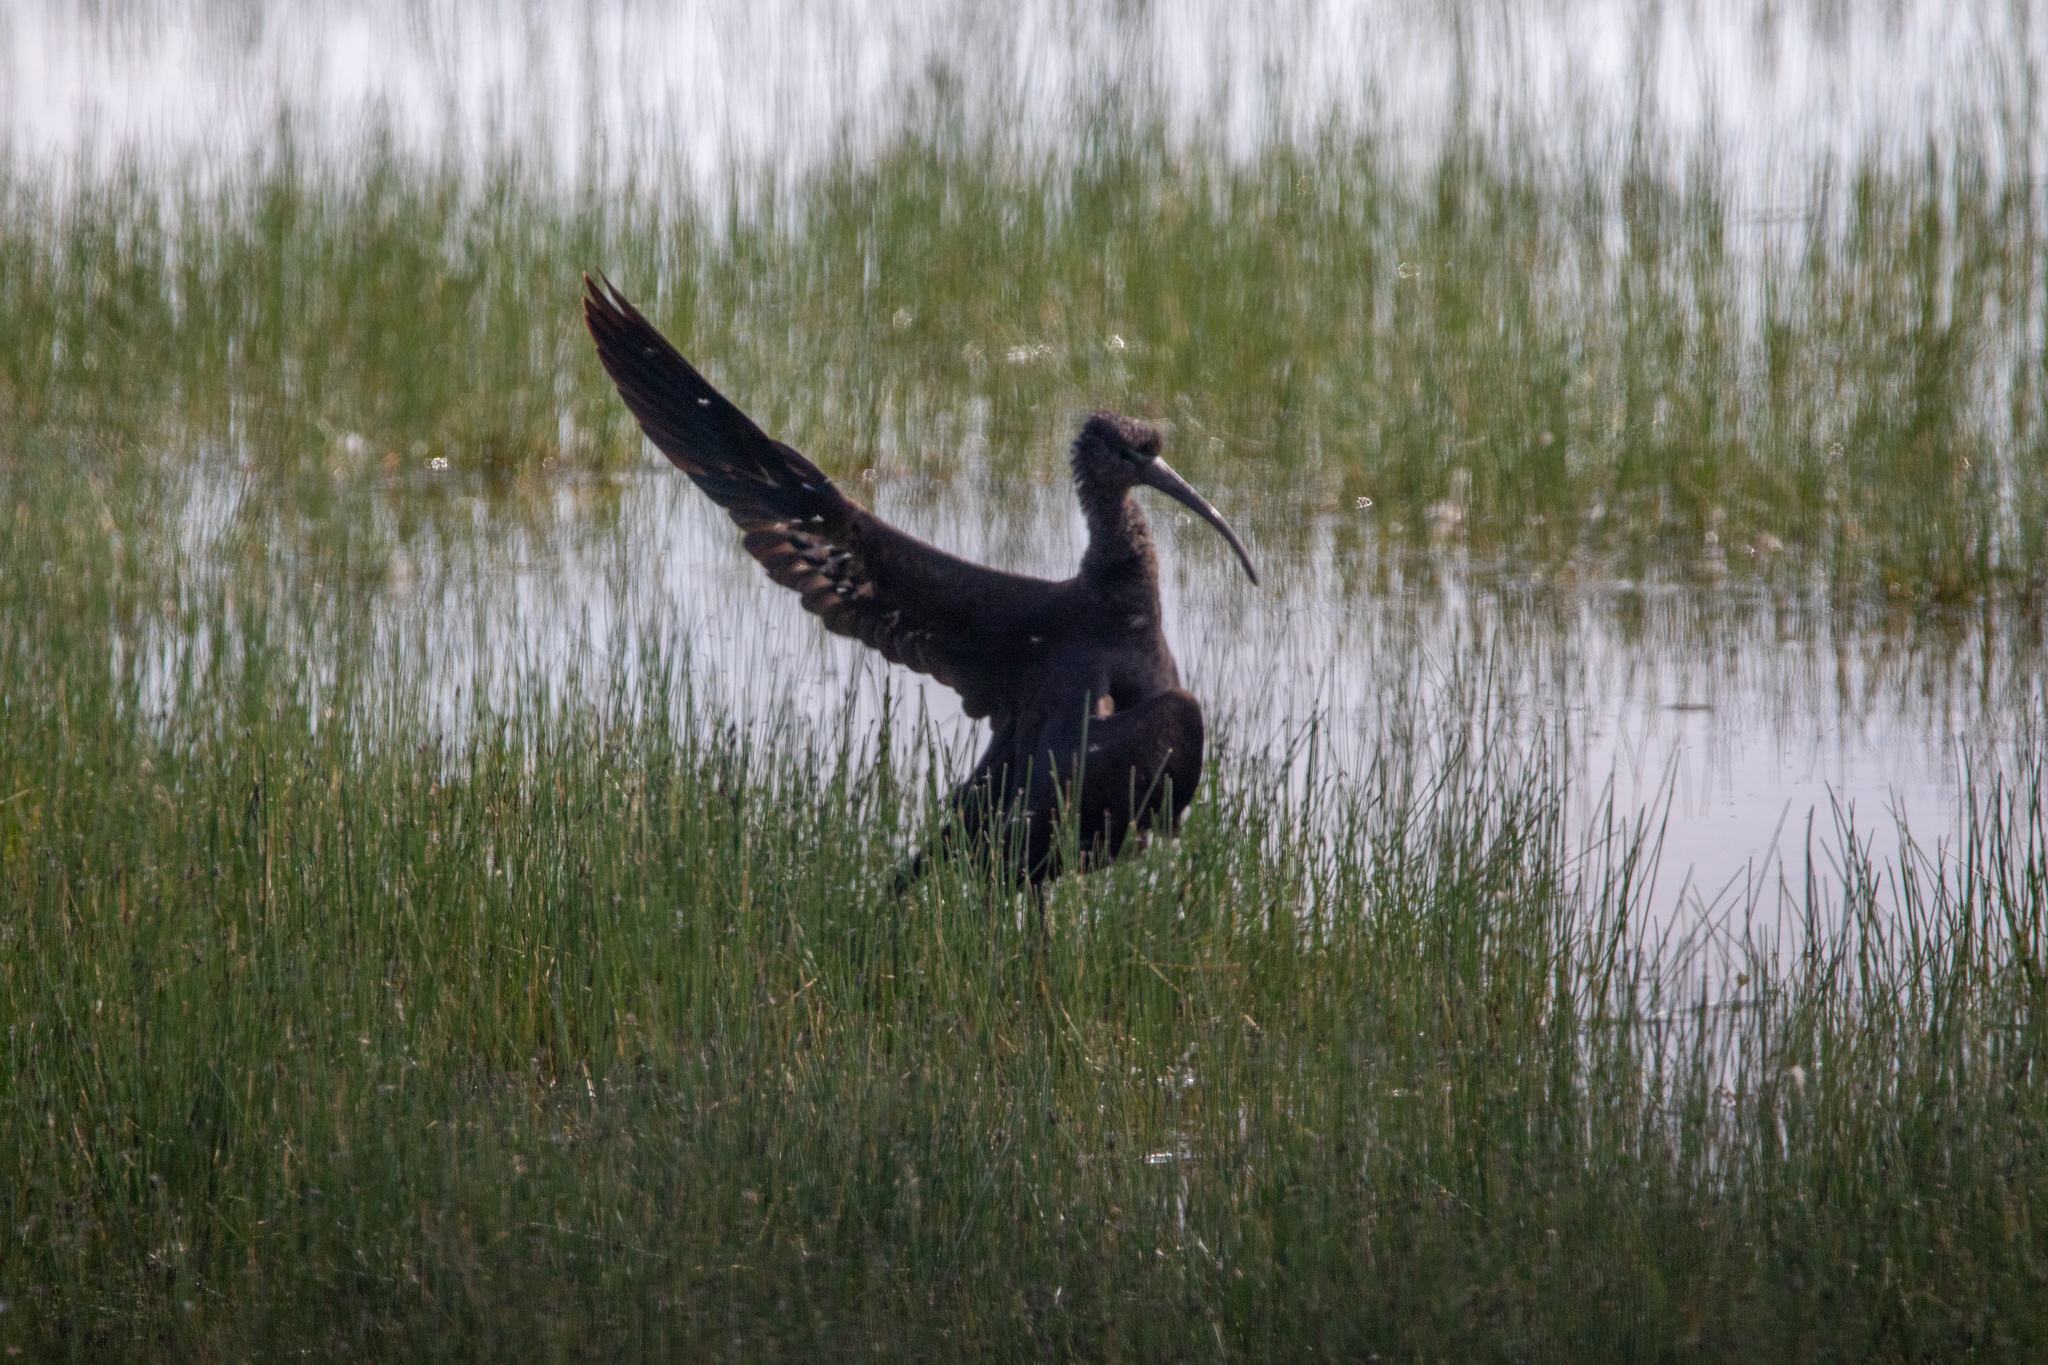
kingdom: Animalia
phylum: Chordata
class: Aves
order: Pelecaniformes
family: Threskiornithidae
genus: Plegadis
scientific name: Plegadis falcinellus
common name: Glossy ibis
